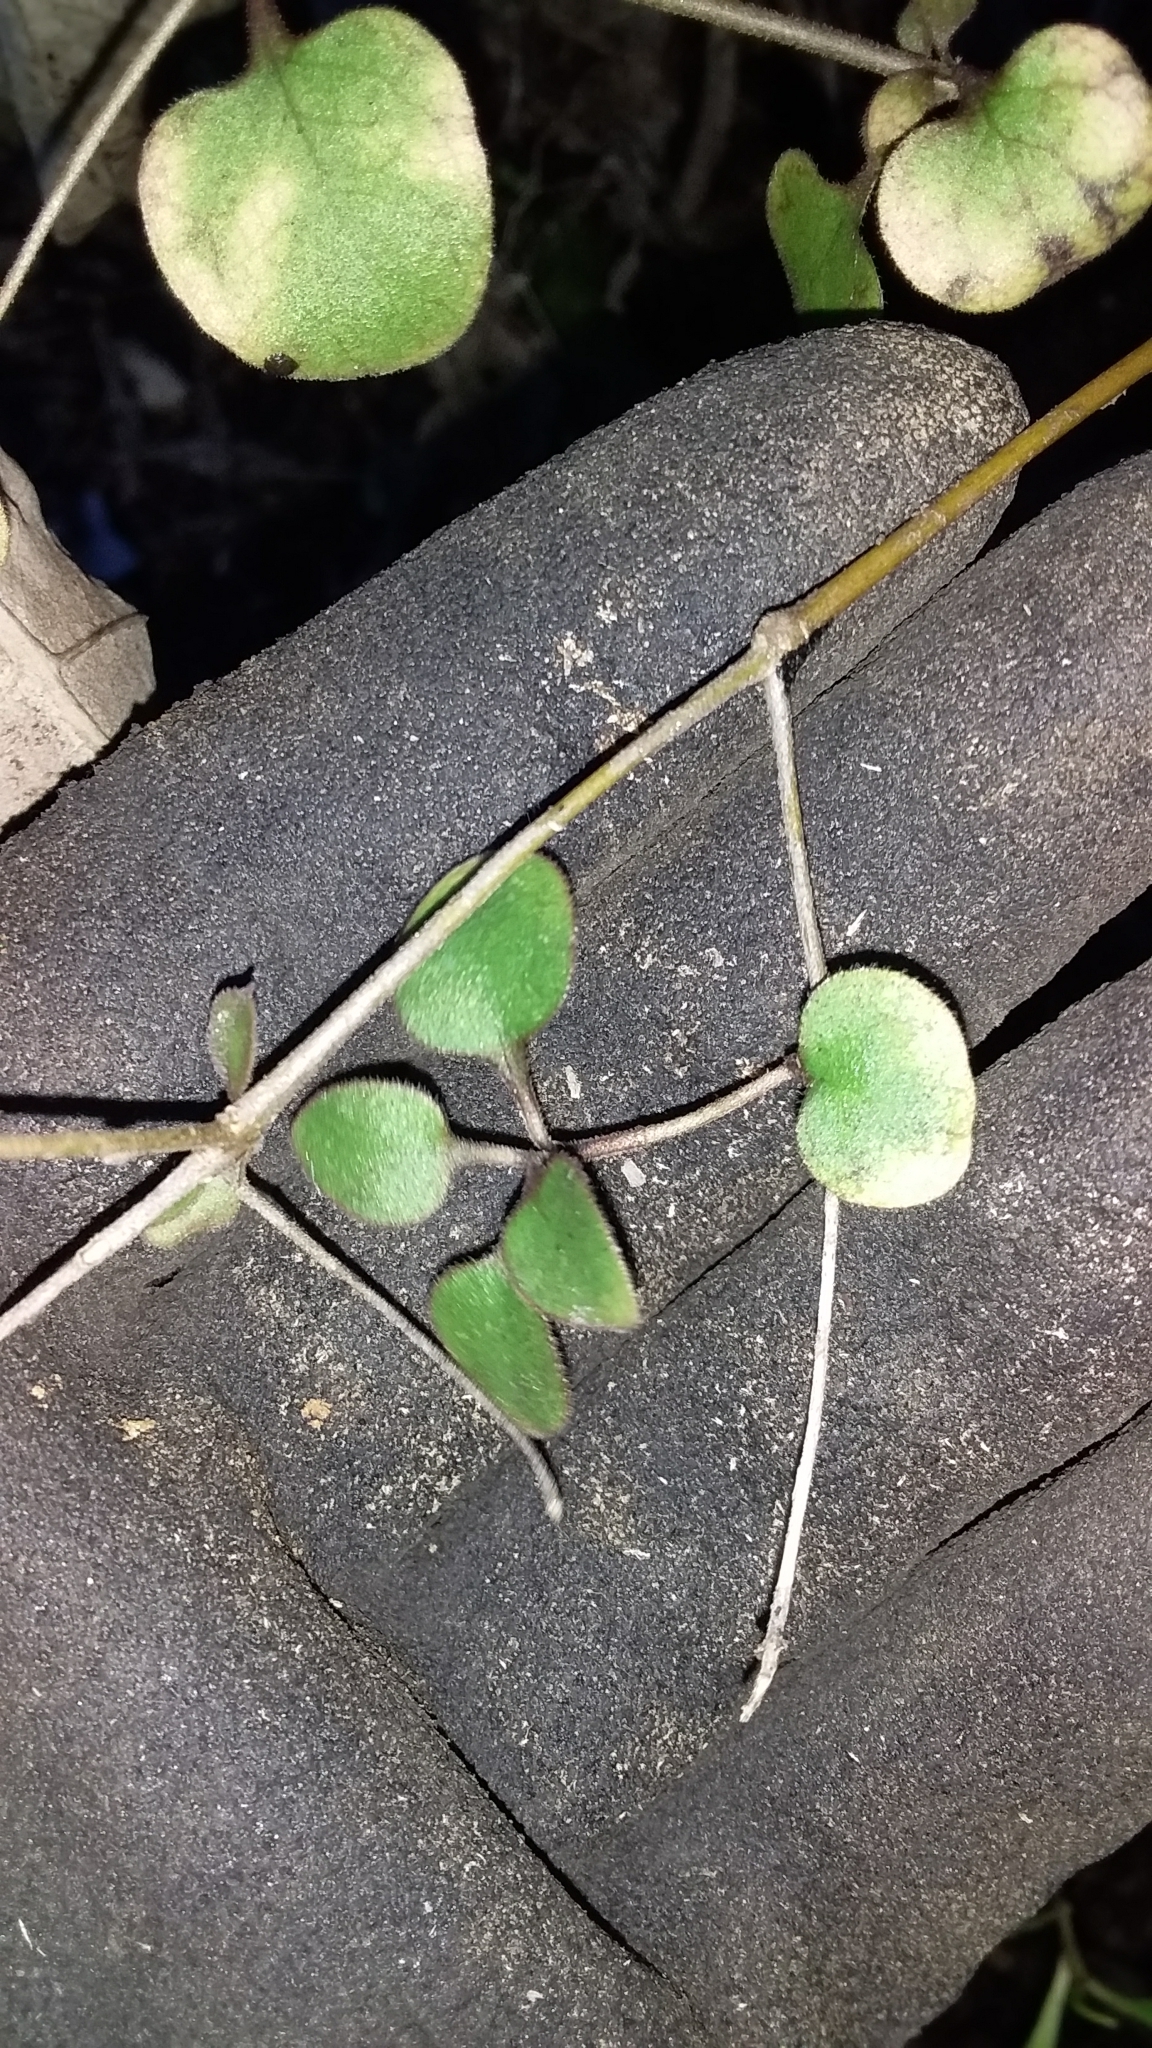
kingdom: Plantae
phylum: Tracheophyta
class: Magnoliopsida
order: Gentianales
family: Rubiaceae
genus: Coprosma
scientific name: Coprosma rubra
